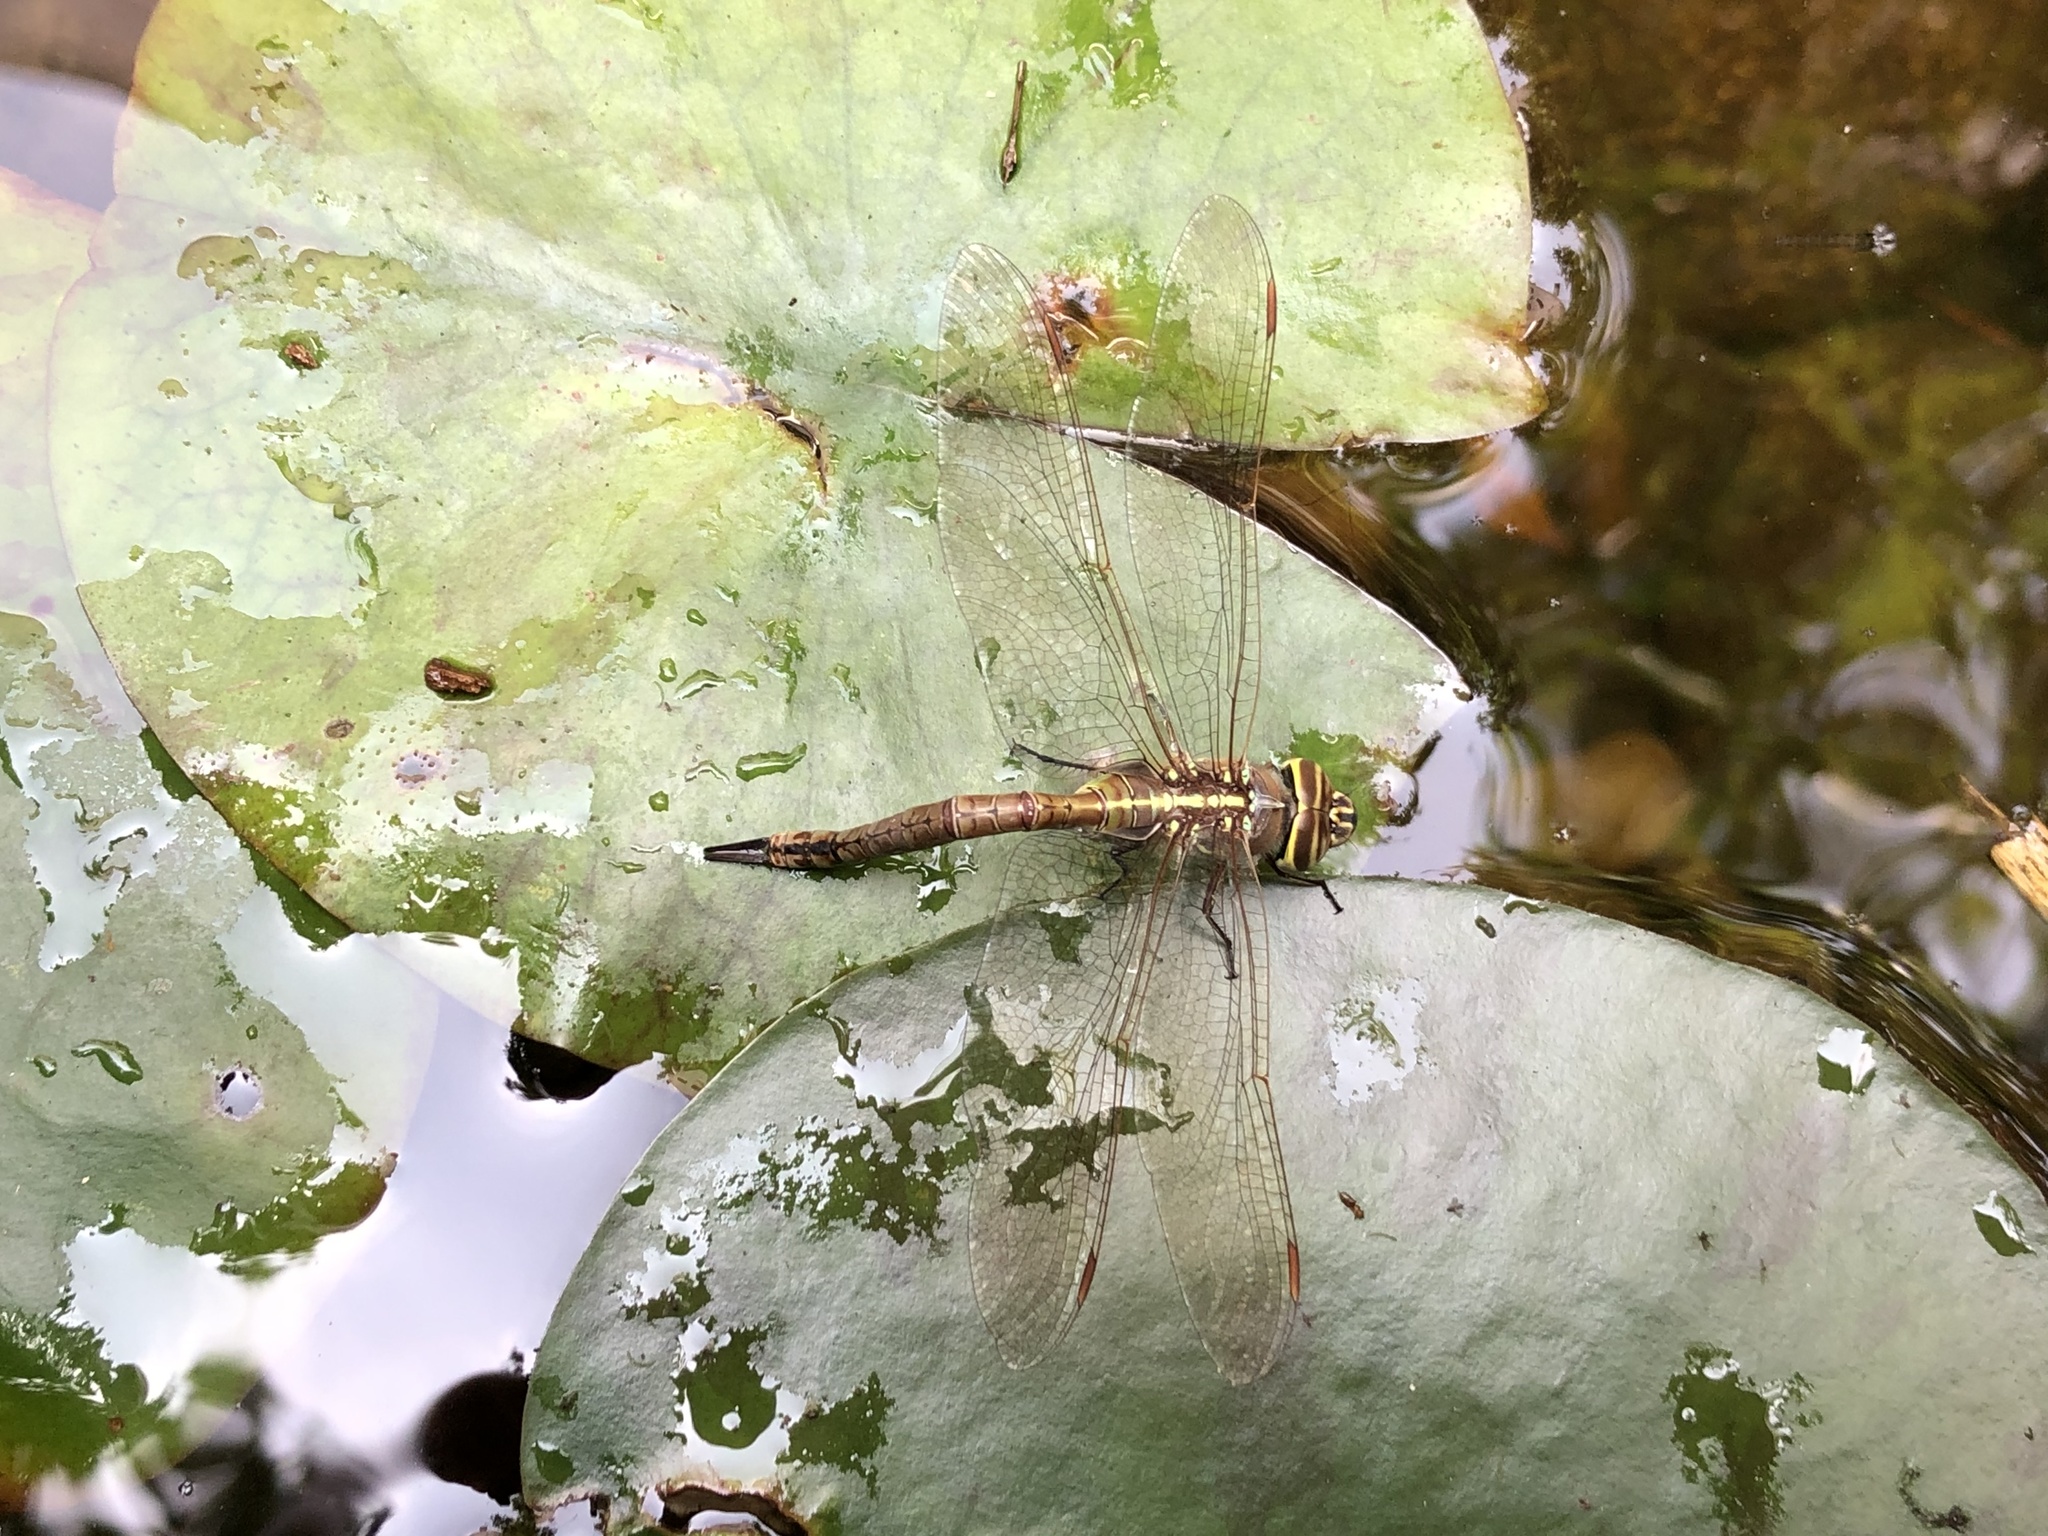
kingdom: Animalia
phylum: Arthropoda
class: Insecta
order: Odonata
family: Aeshnidae
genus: Rhionaeschna
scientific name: Rhionaeschna bonariensis
